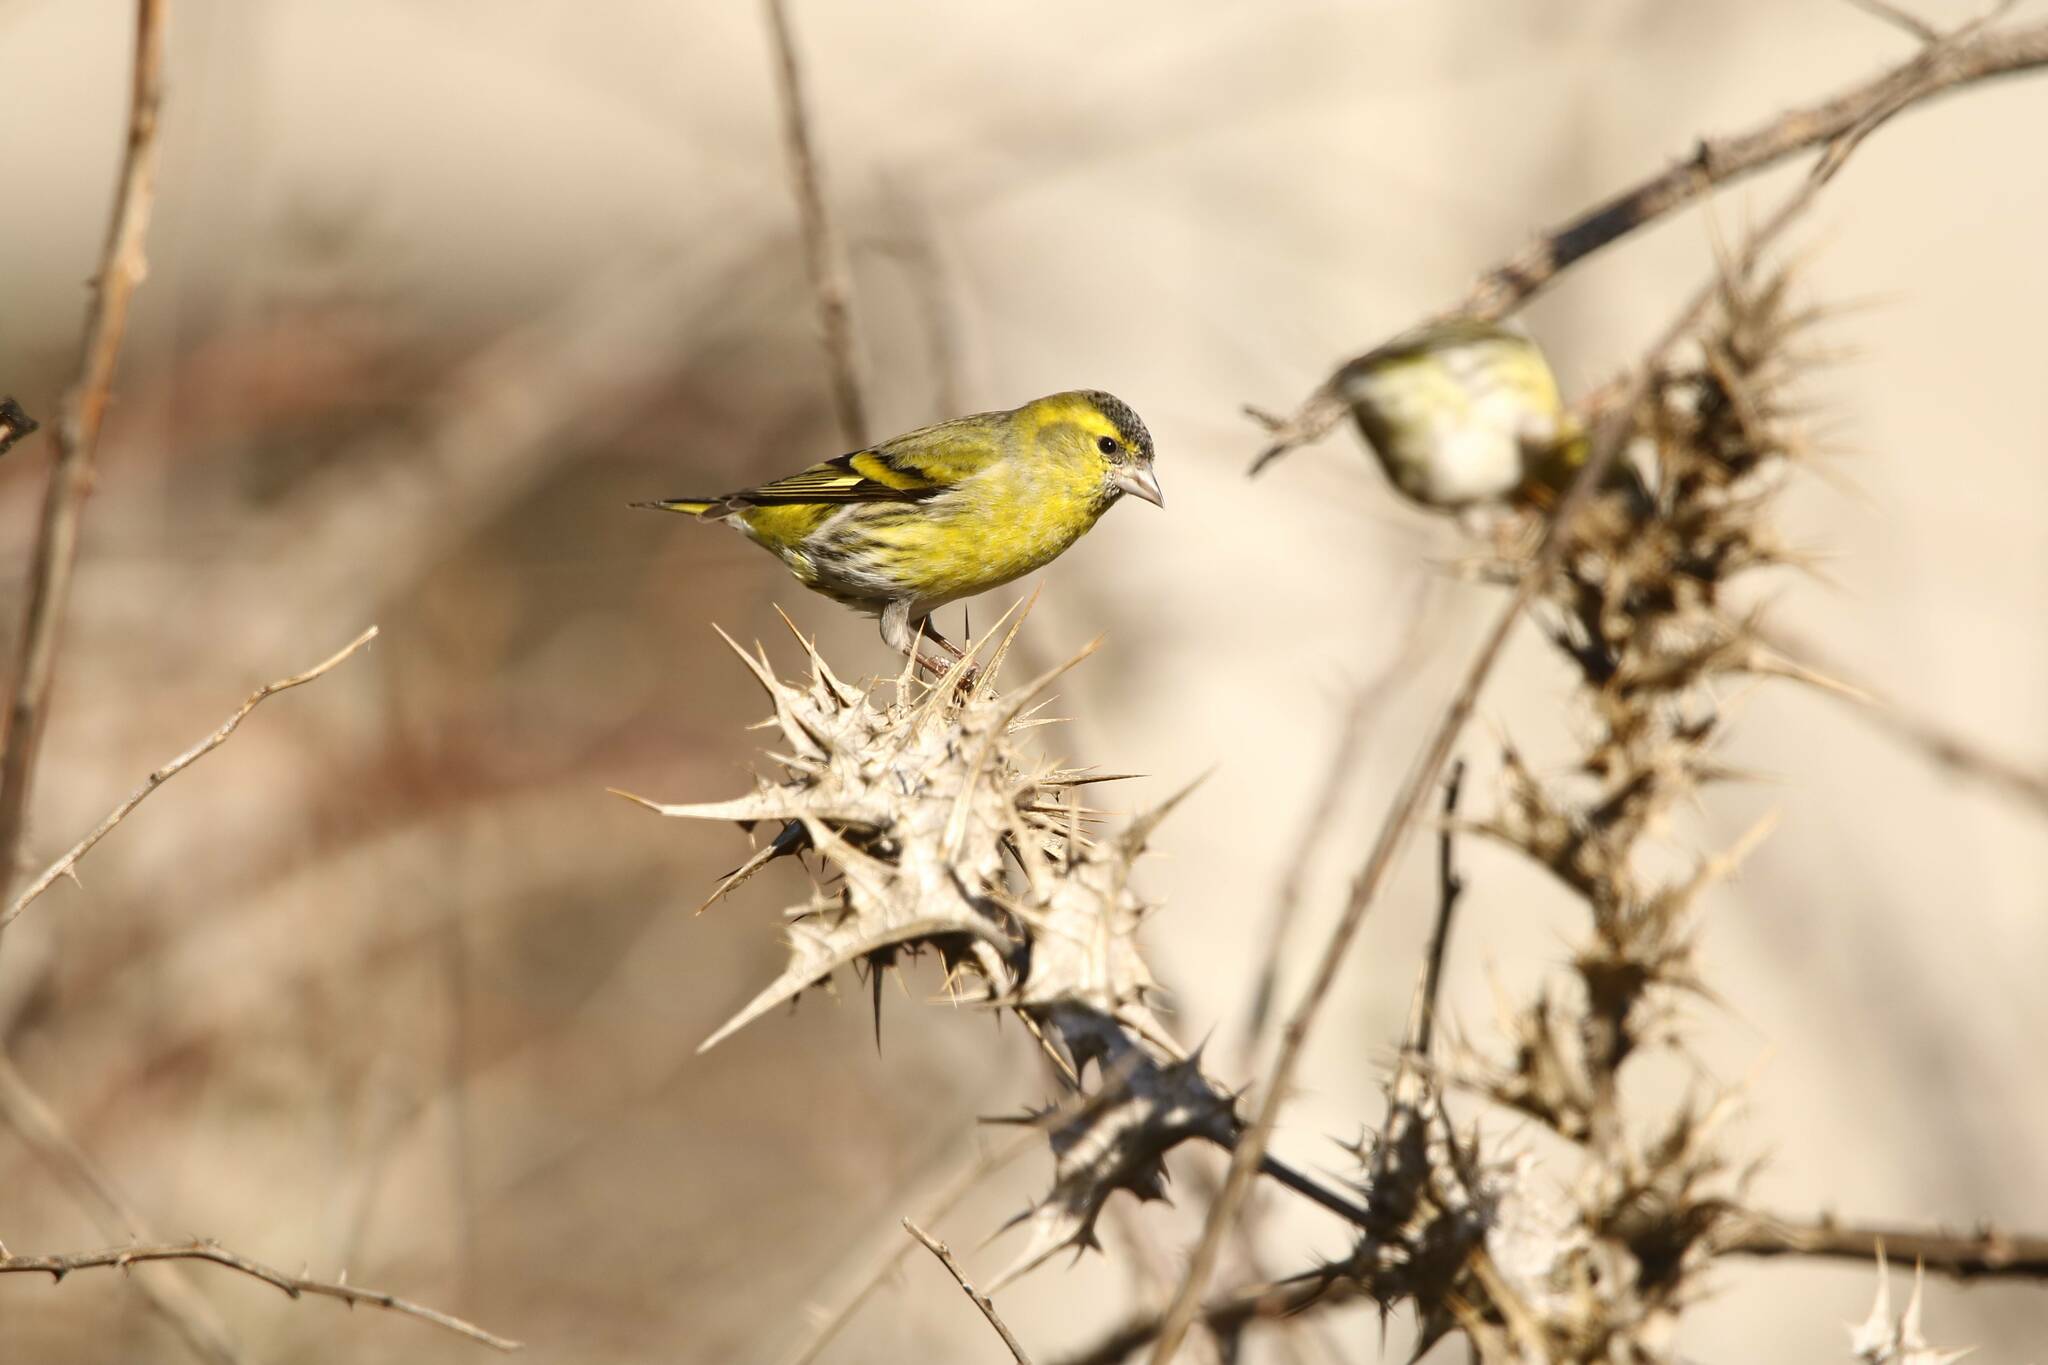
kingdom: Animalia
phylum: Chordata
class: Aves
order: Passeriformes
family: Fringillidae
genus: Spinus
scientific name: Spinus spinus
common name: Eurasian siskin
